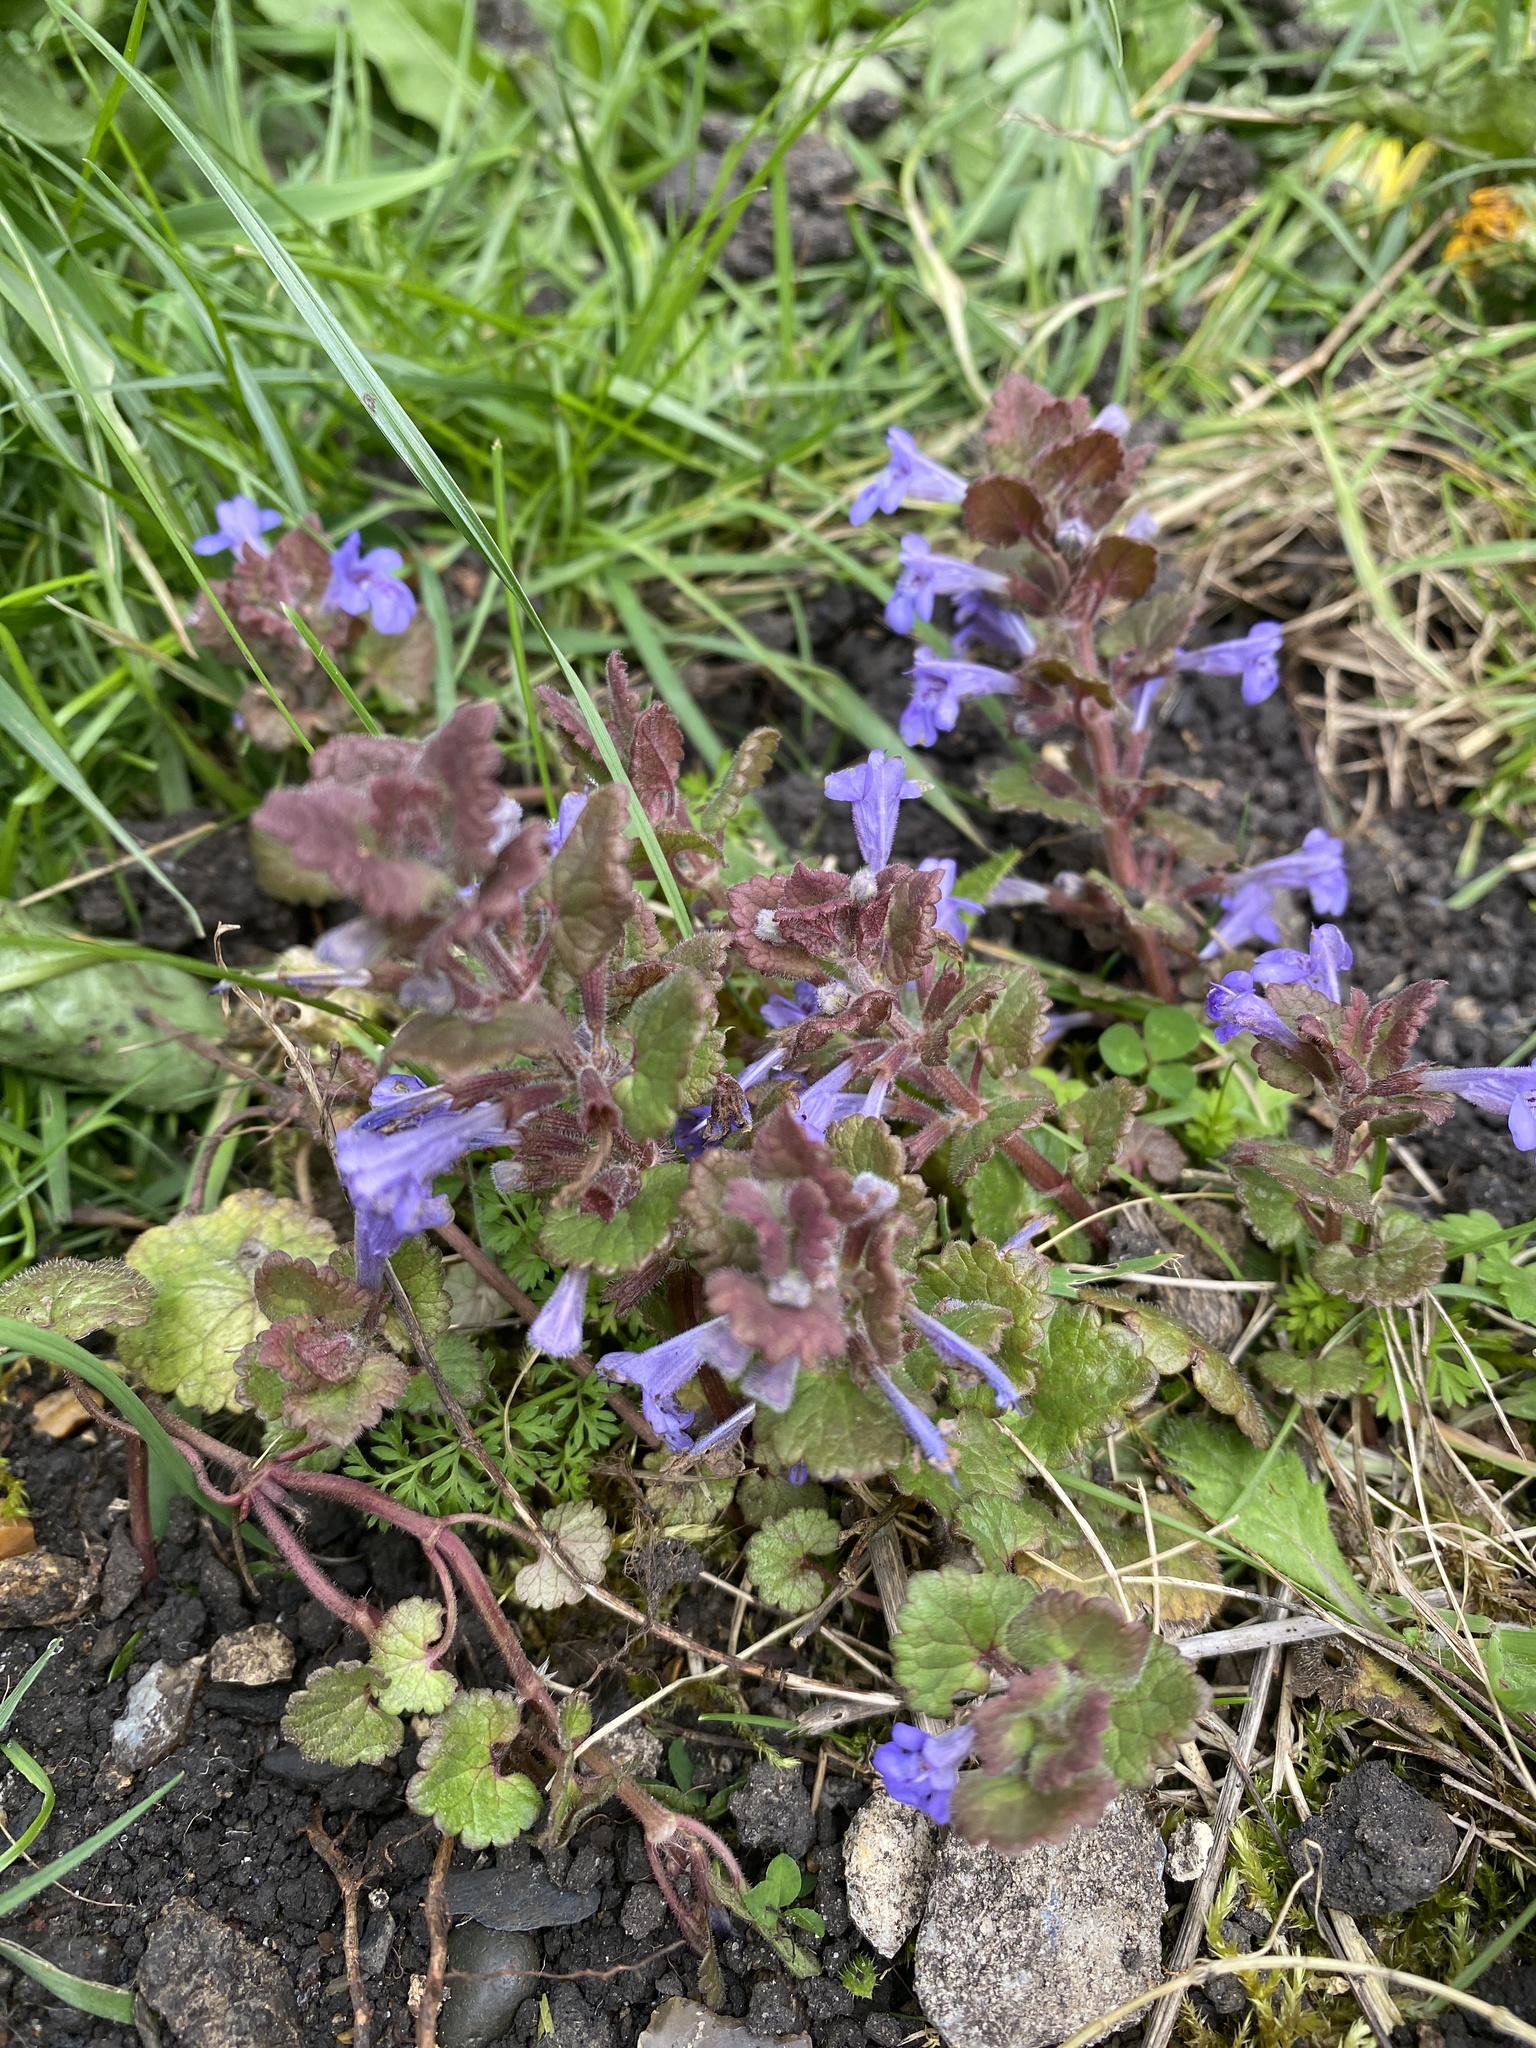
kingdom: Plantae
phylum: Tracheophyta
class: Magnoliopsida
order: Lamiales
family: Lamiaceae
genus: Glechoma
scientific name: Glechoma hederacea
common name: Ground ivy
